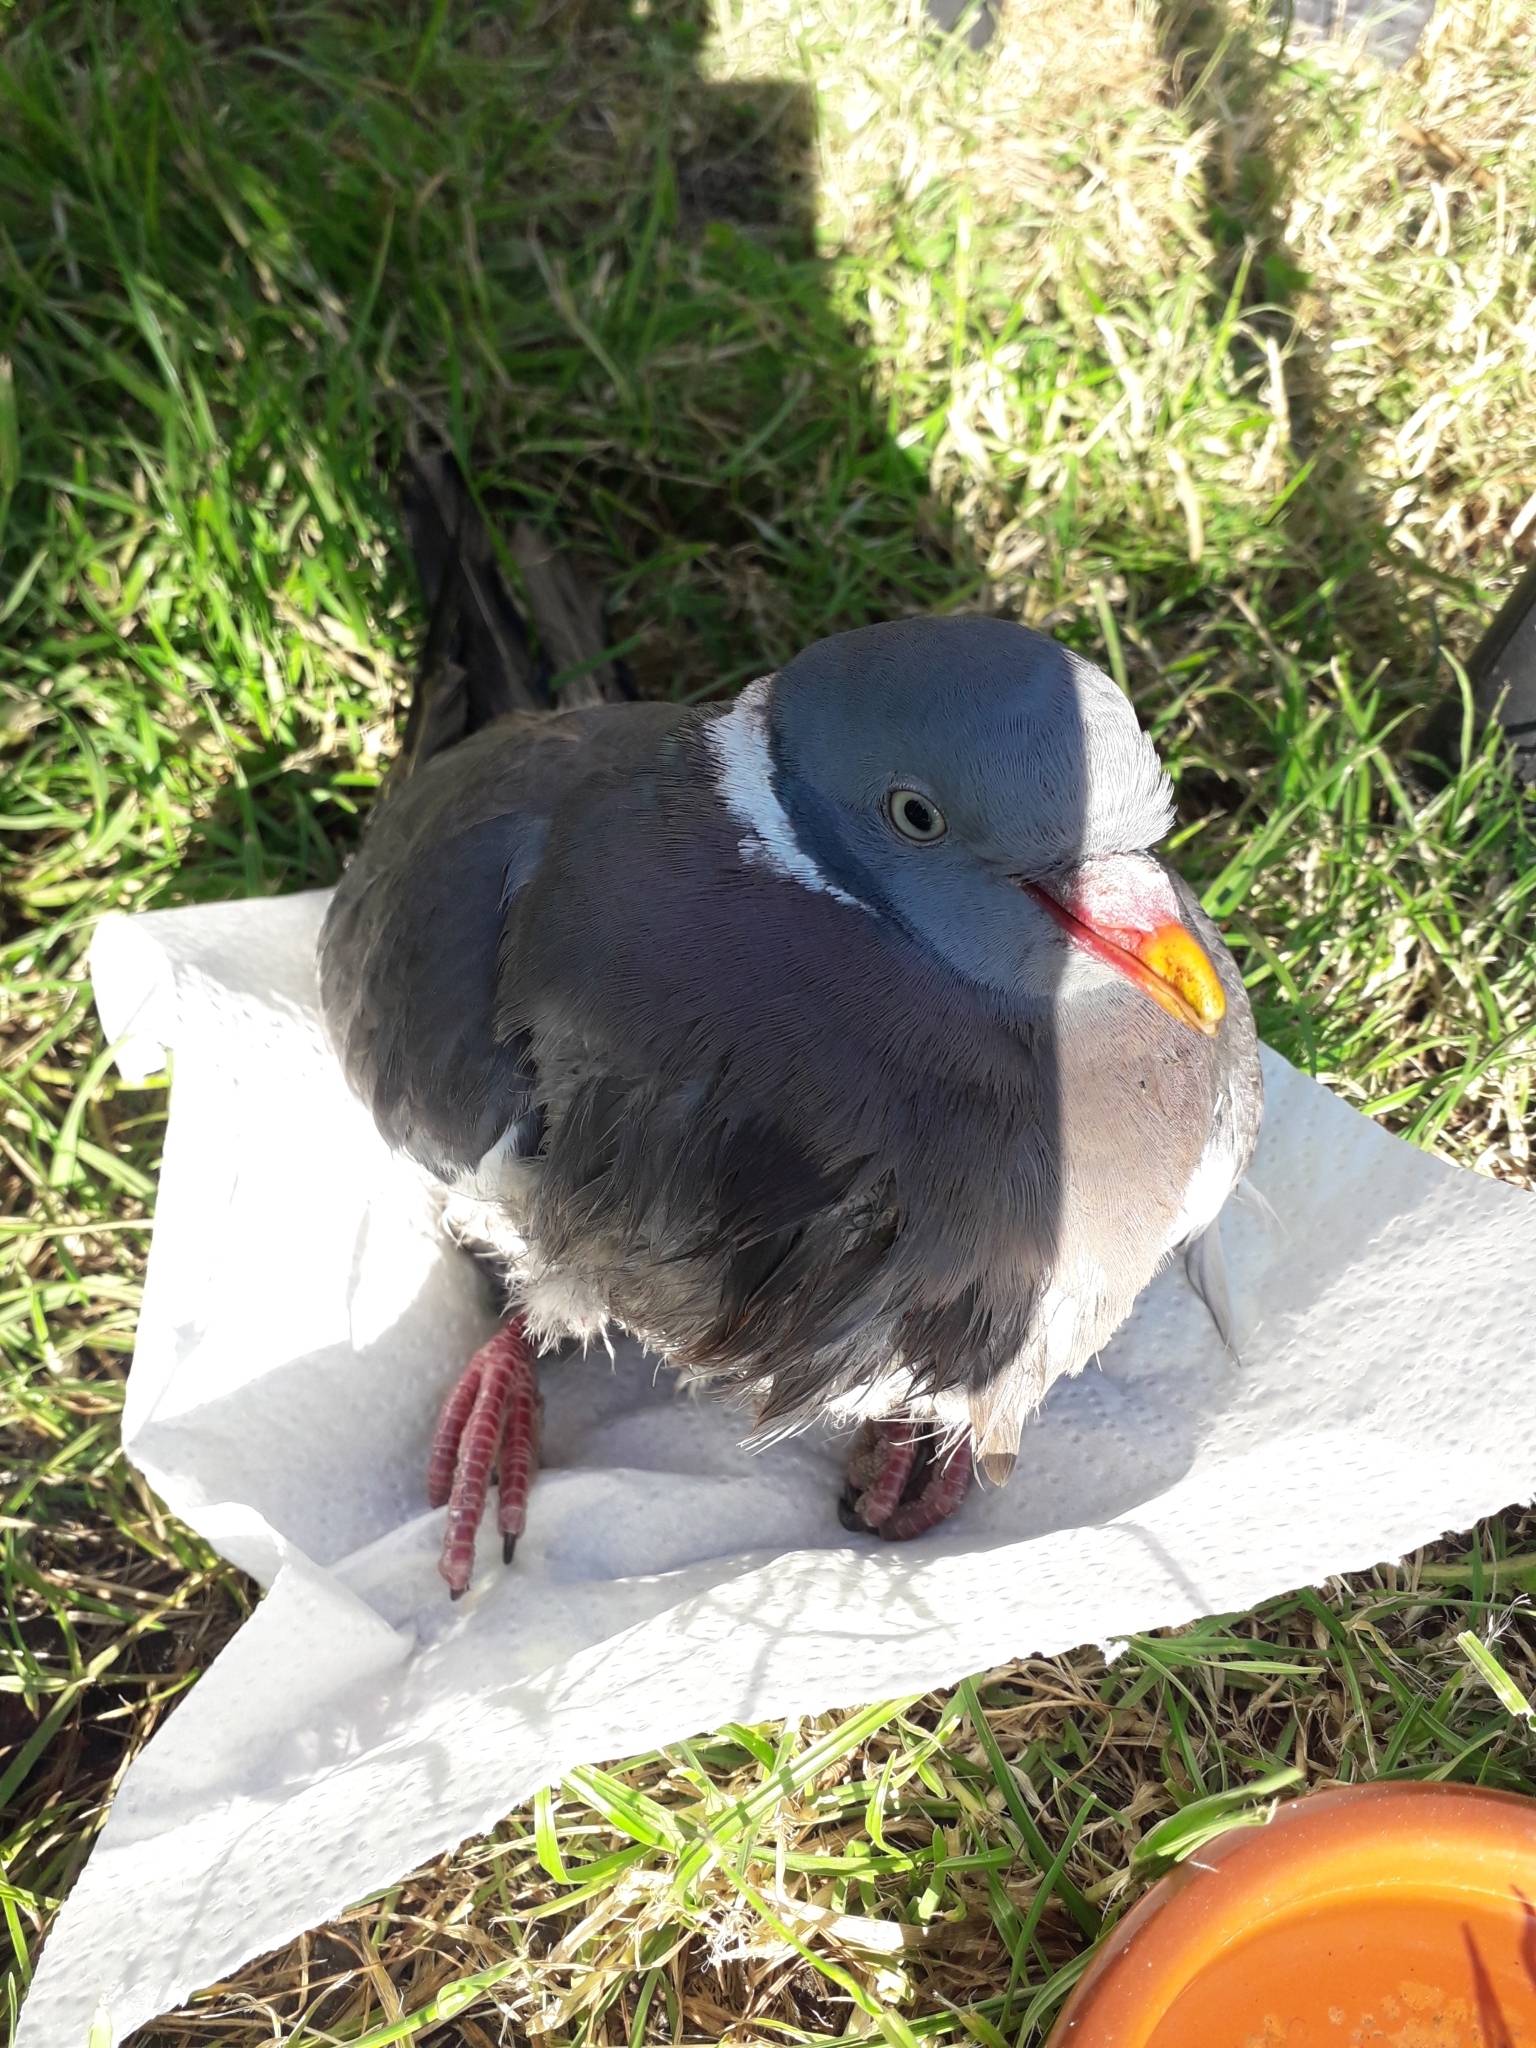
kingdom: Animalia
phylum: Chordata
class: Aves
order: Columbiformes
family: Columbidae
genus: Columba
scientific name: Columba palumbus
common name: Common wood pigeon
